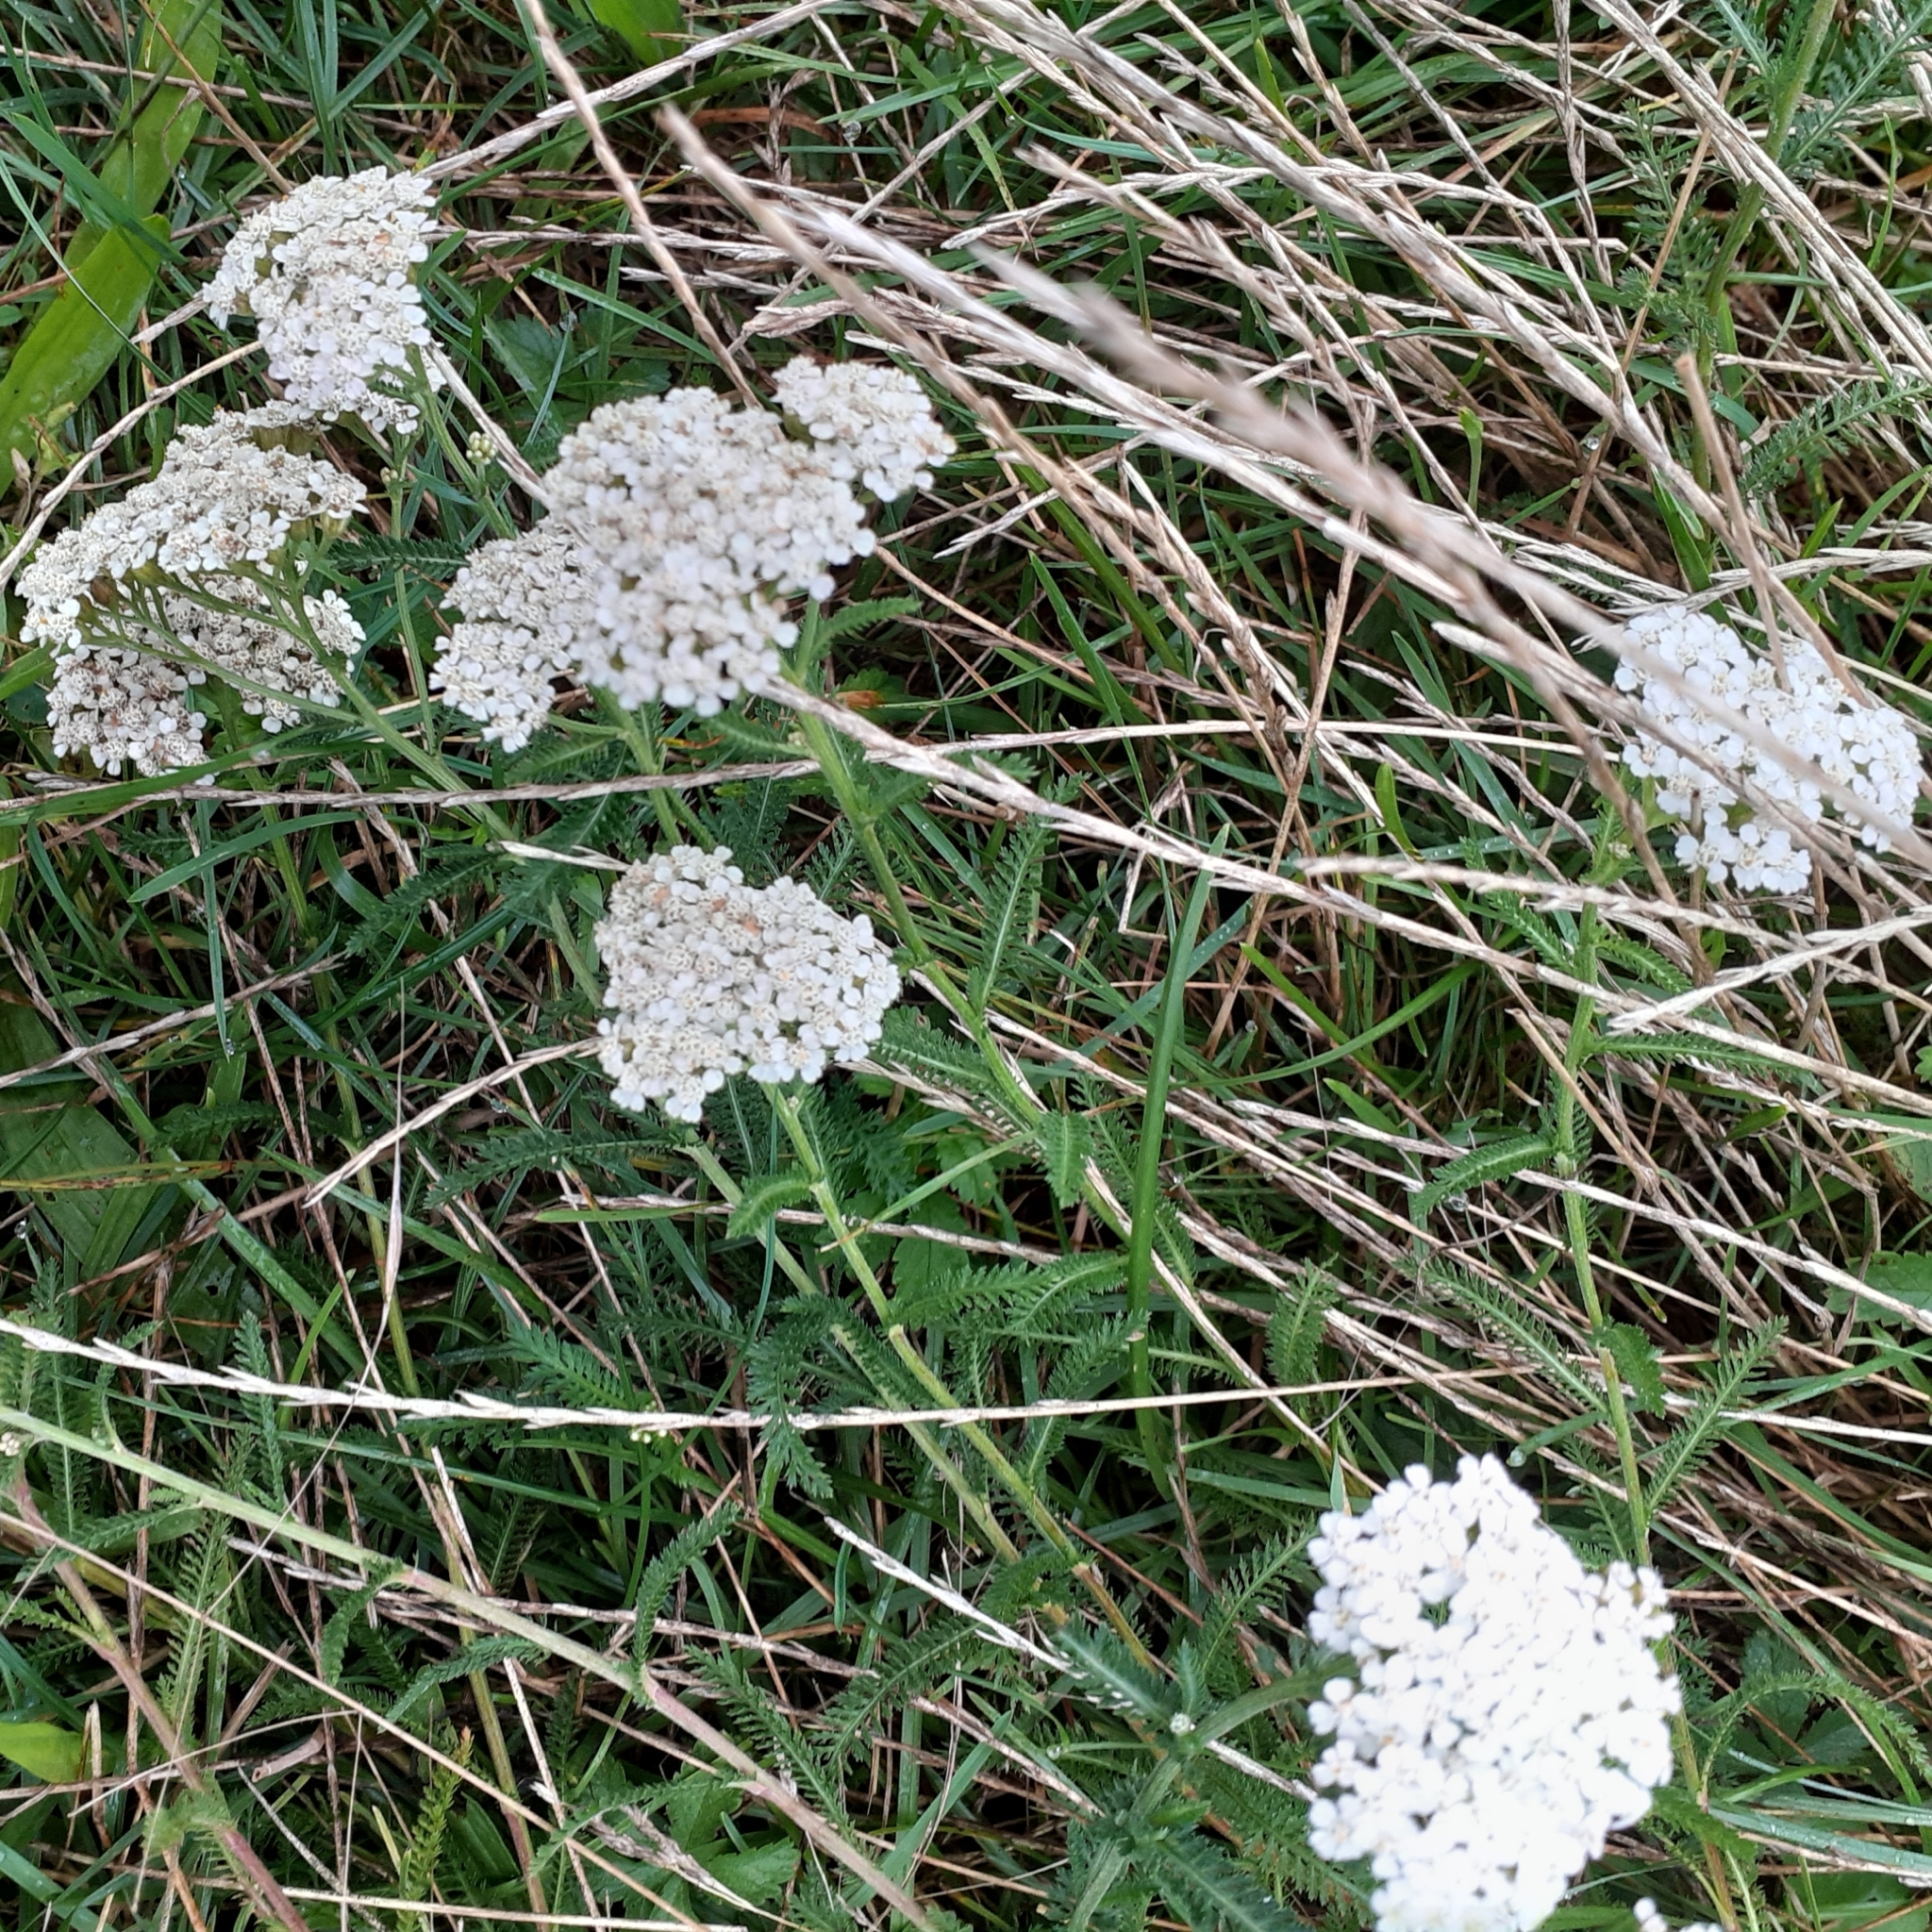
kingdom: Plantae
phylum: Tracheophyta
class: Magnoliopsida
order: Asterales
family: Asteraceae
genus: Achillea
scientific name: Achillea millefolium
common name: Yarrow
